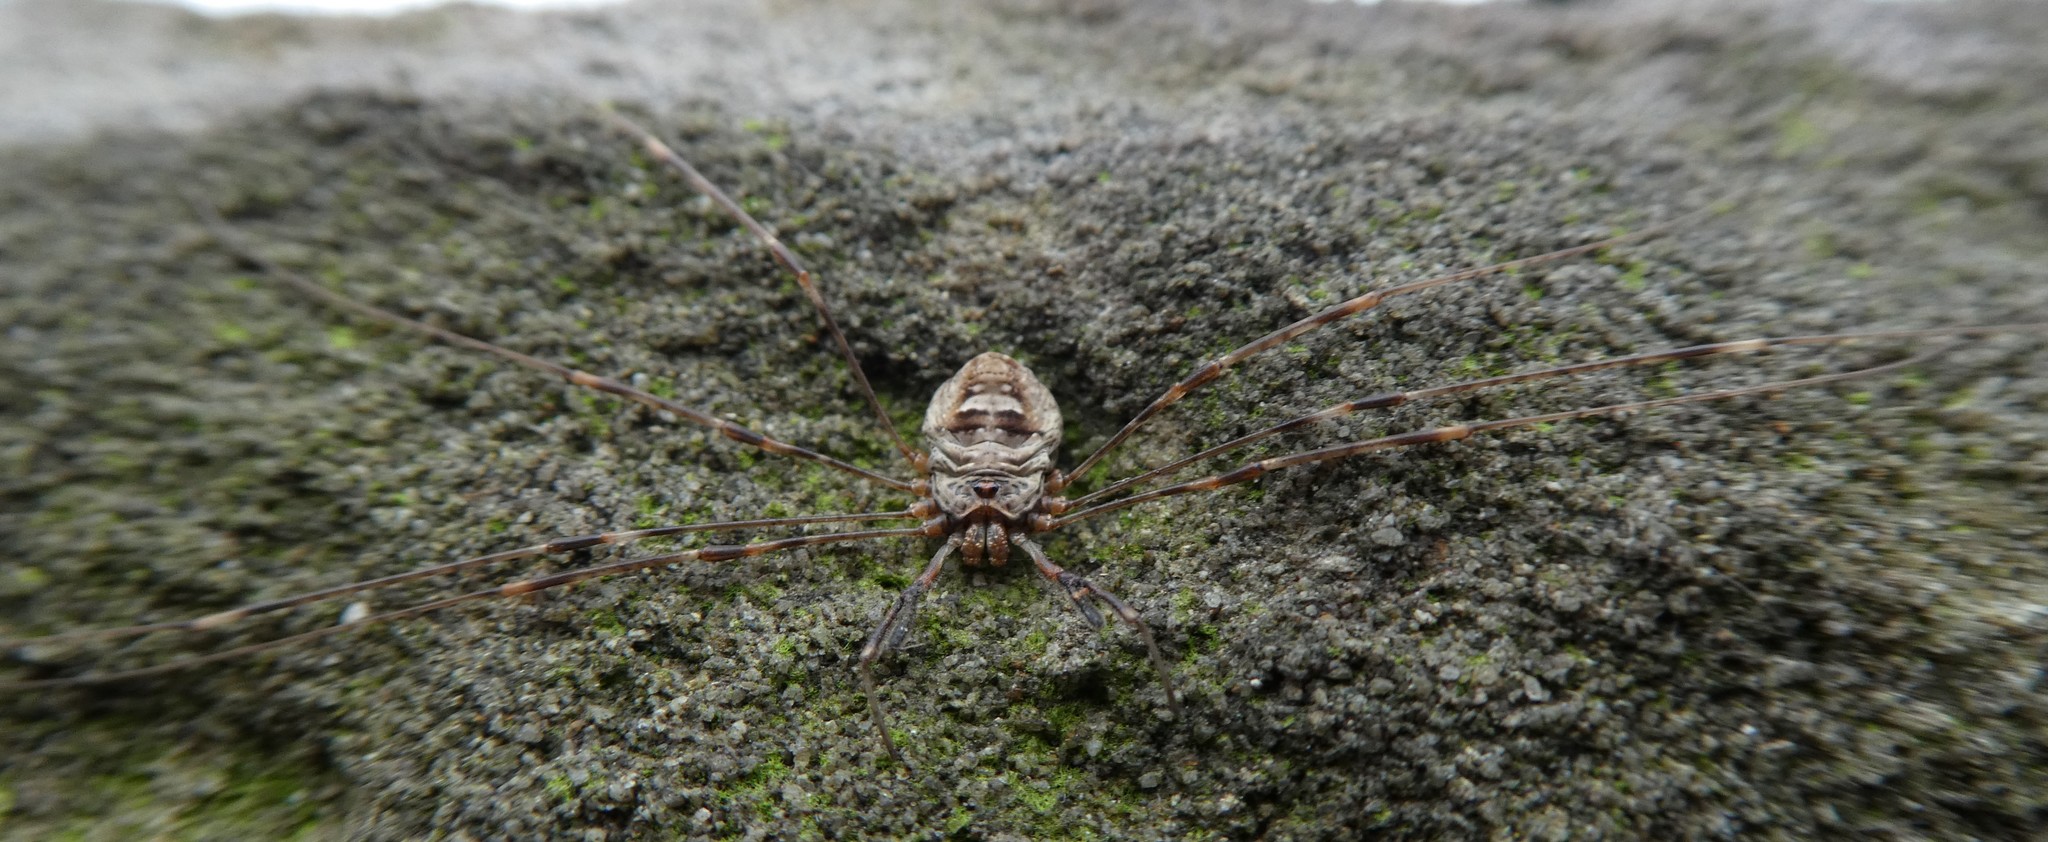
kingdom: Animalia
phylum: Arthropoda
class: Arachnida
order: Opiliones
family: Phalangiidae
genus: Dicranopalpus
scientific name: Dicranopalpus ramosus
